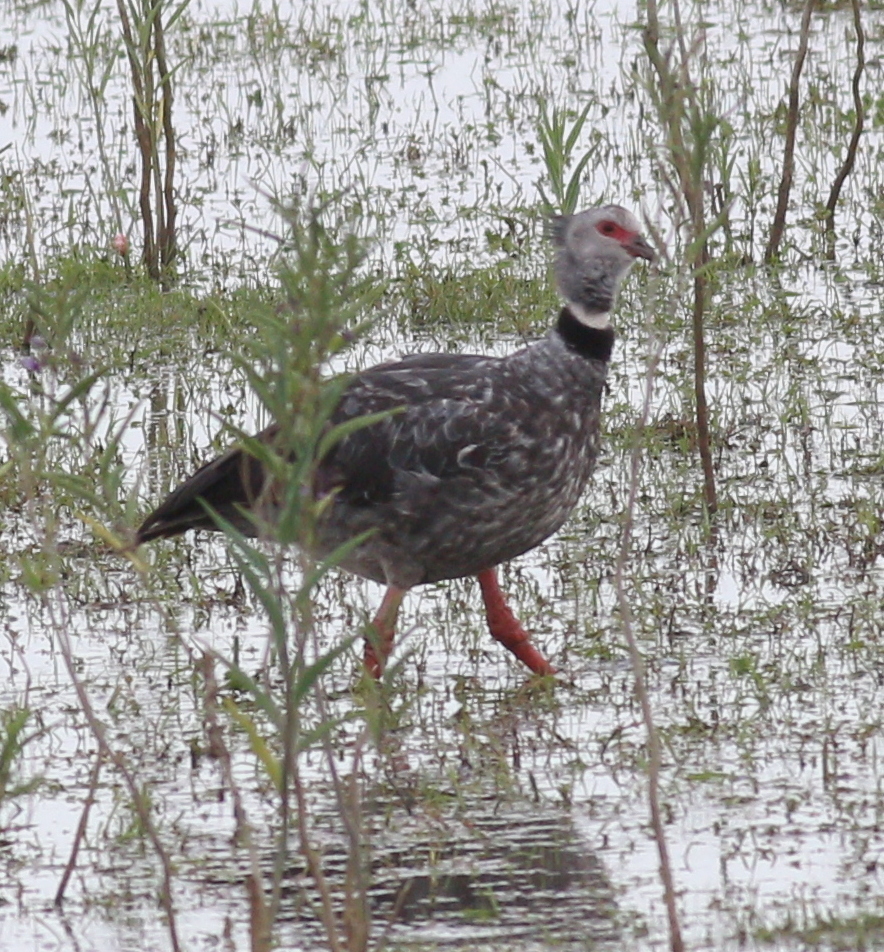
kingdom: Animalia
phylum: Chordata
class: Aves
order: Anseriformes
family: Anhimidae
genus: Chauna
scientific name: Chauna torquata
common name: Southern screamer
